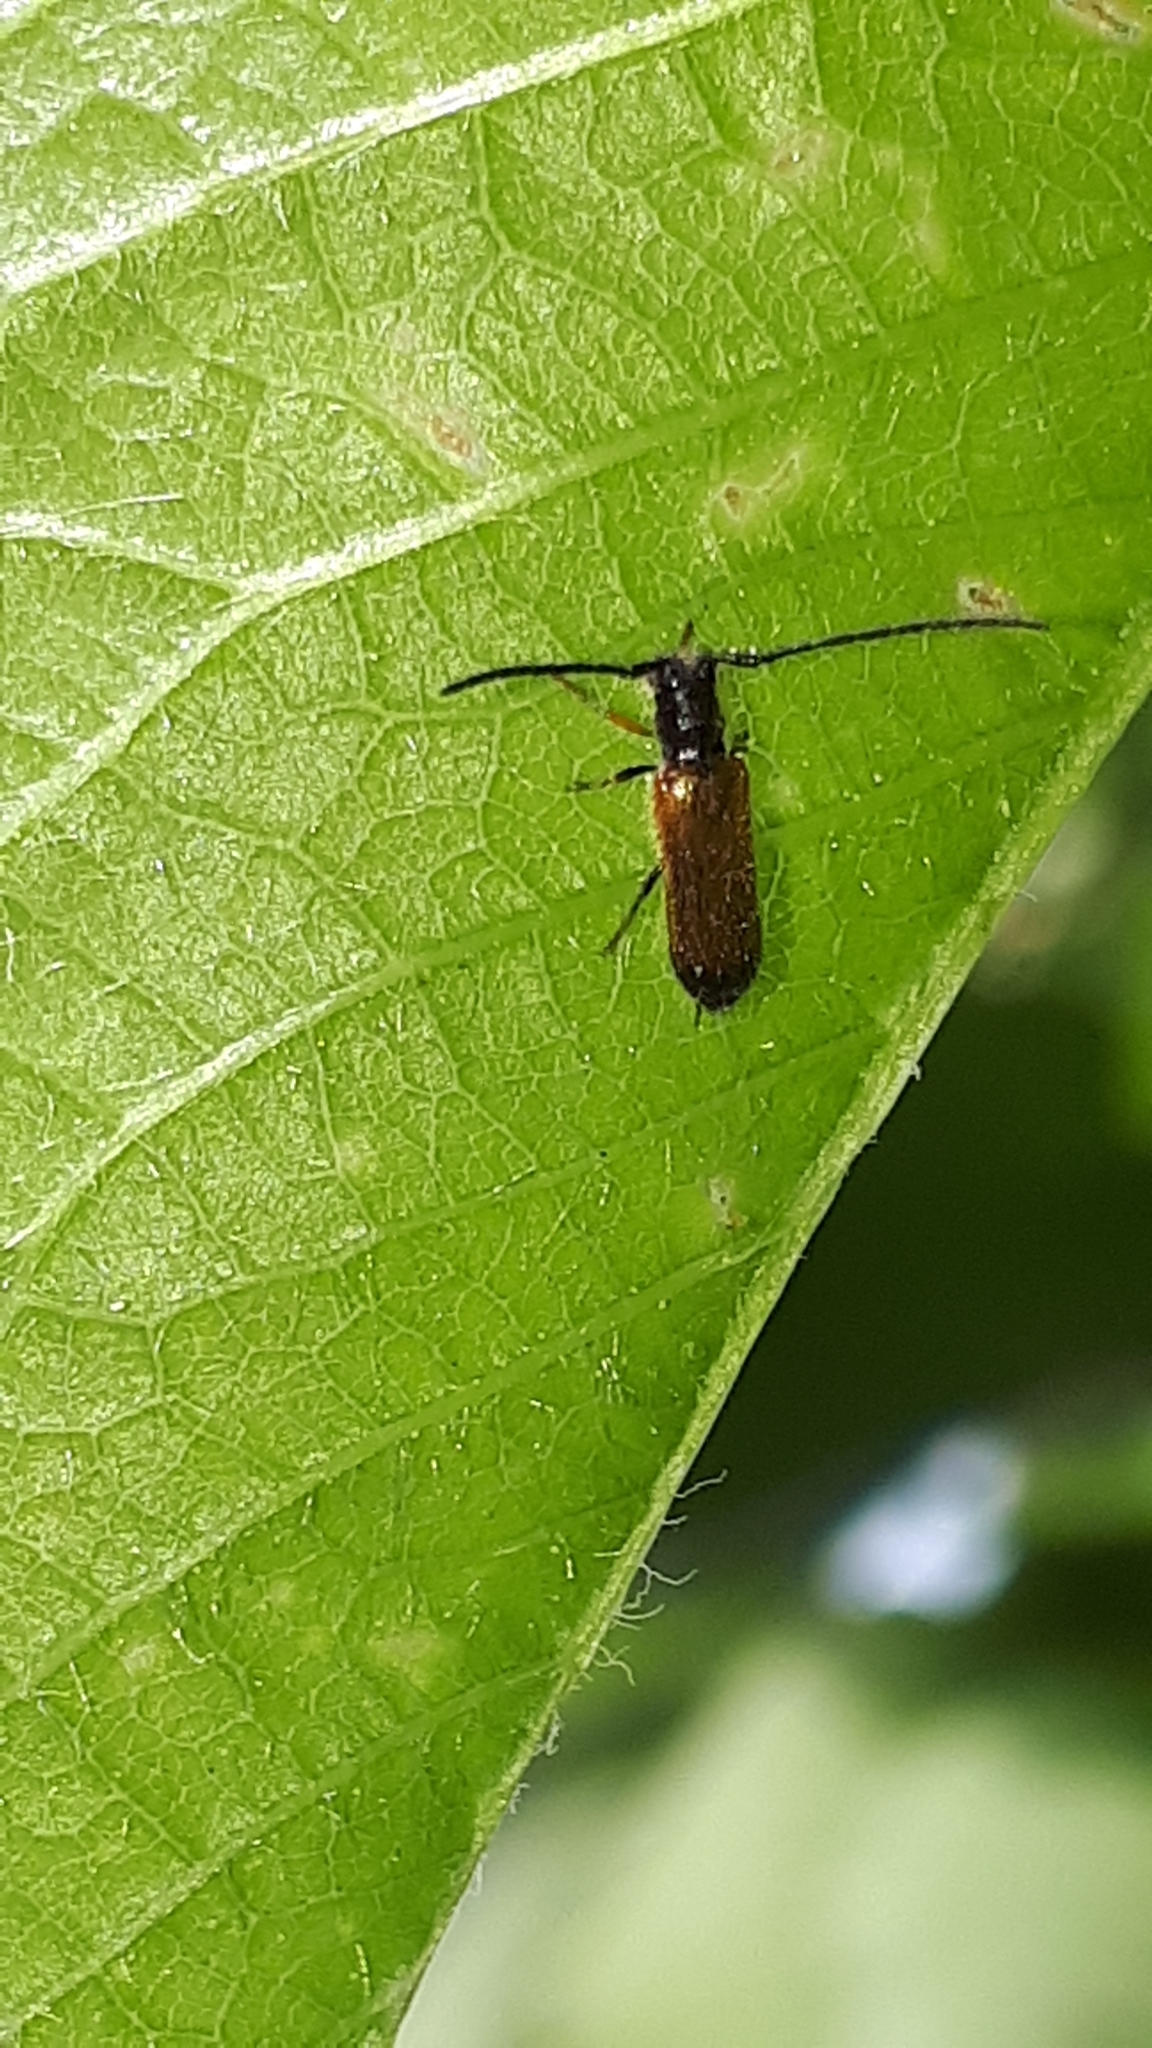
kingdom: Animalia
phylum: Arthropoda
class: Insecta
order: Coleoptera
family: Cerambycidae
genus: Tetrops
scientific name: Tetrops praeustus
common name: Plum beetle
